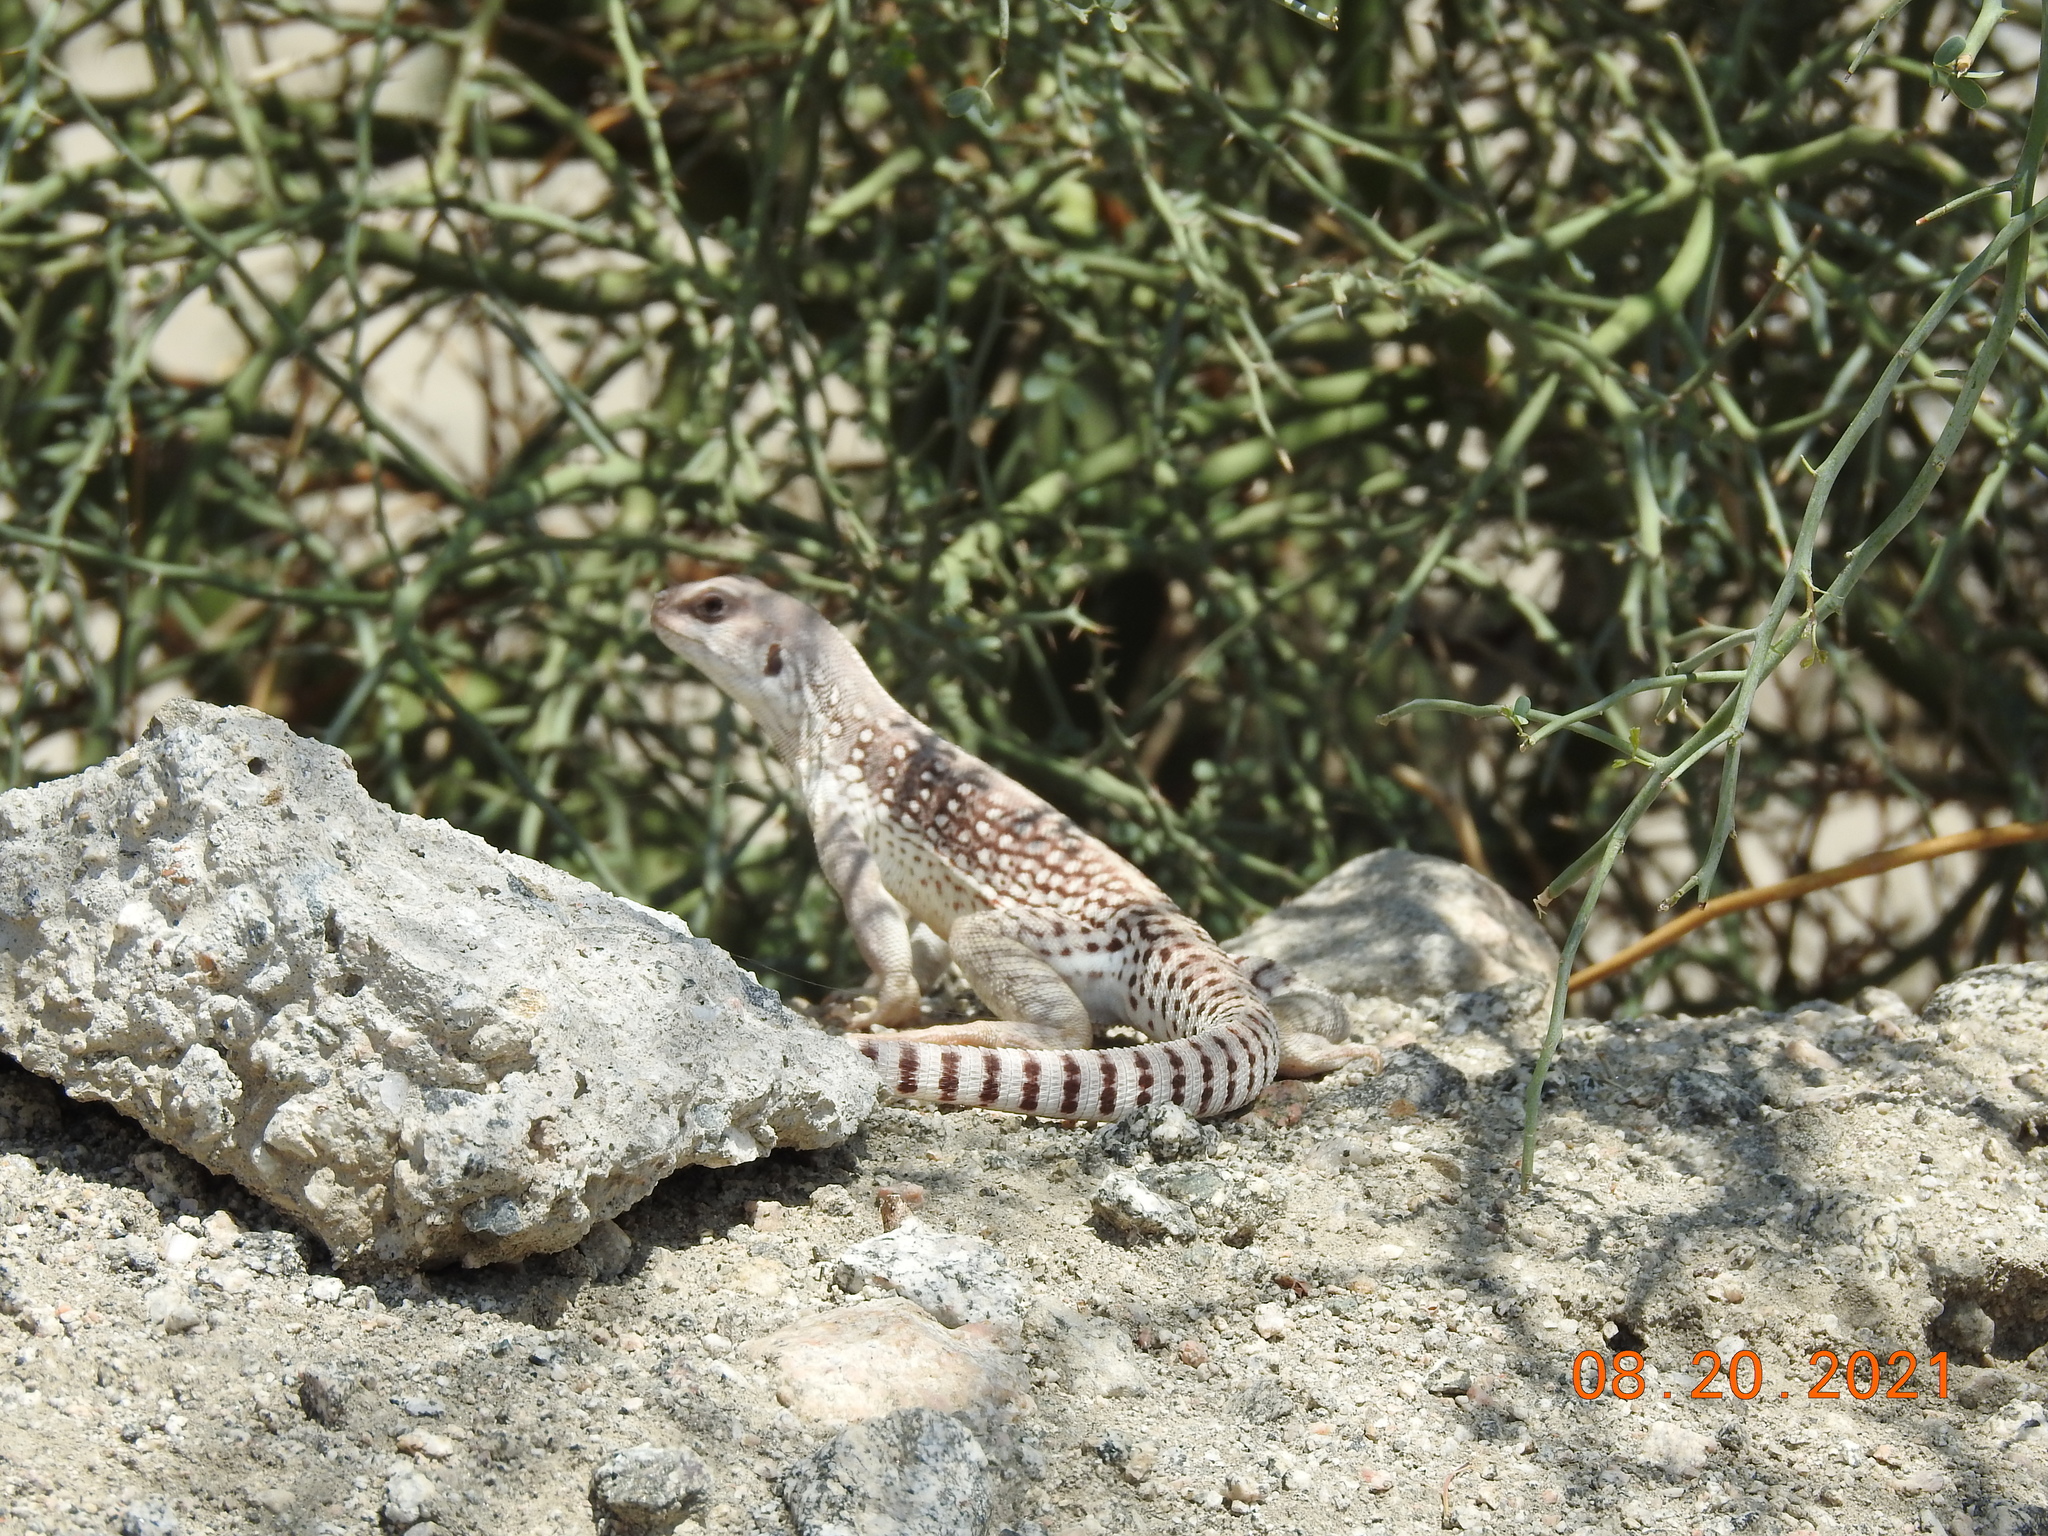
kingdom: Animalia
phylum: Chordata
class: Squamata
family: Iguanidae
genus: Dipsosaurus
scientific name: Dipsosaurus dorsalis
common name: Desert iguana
